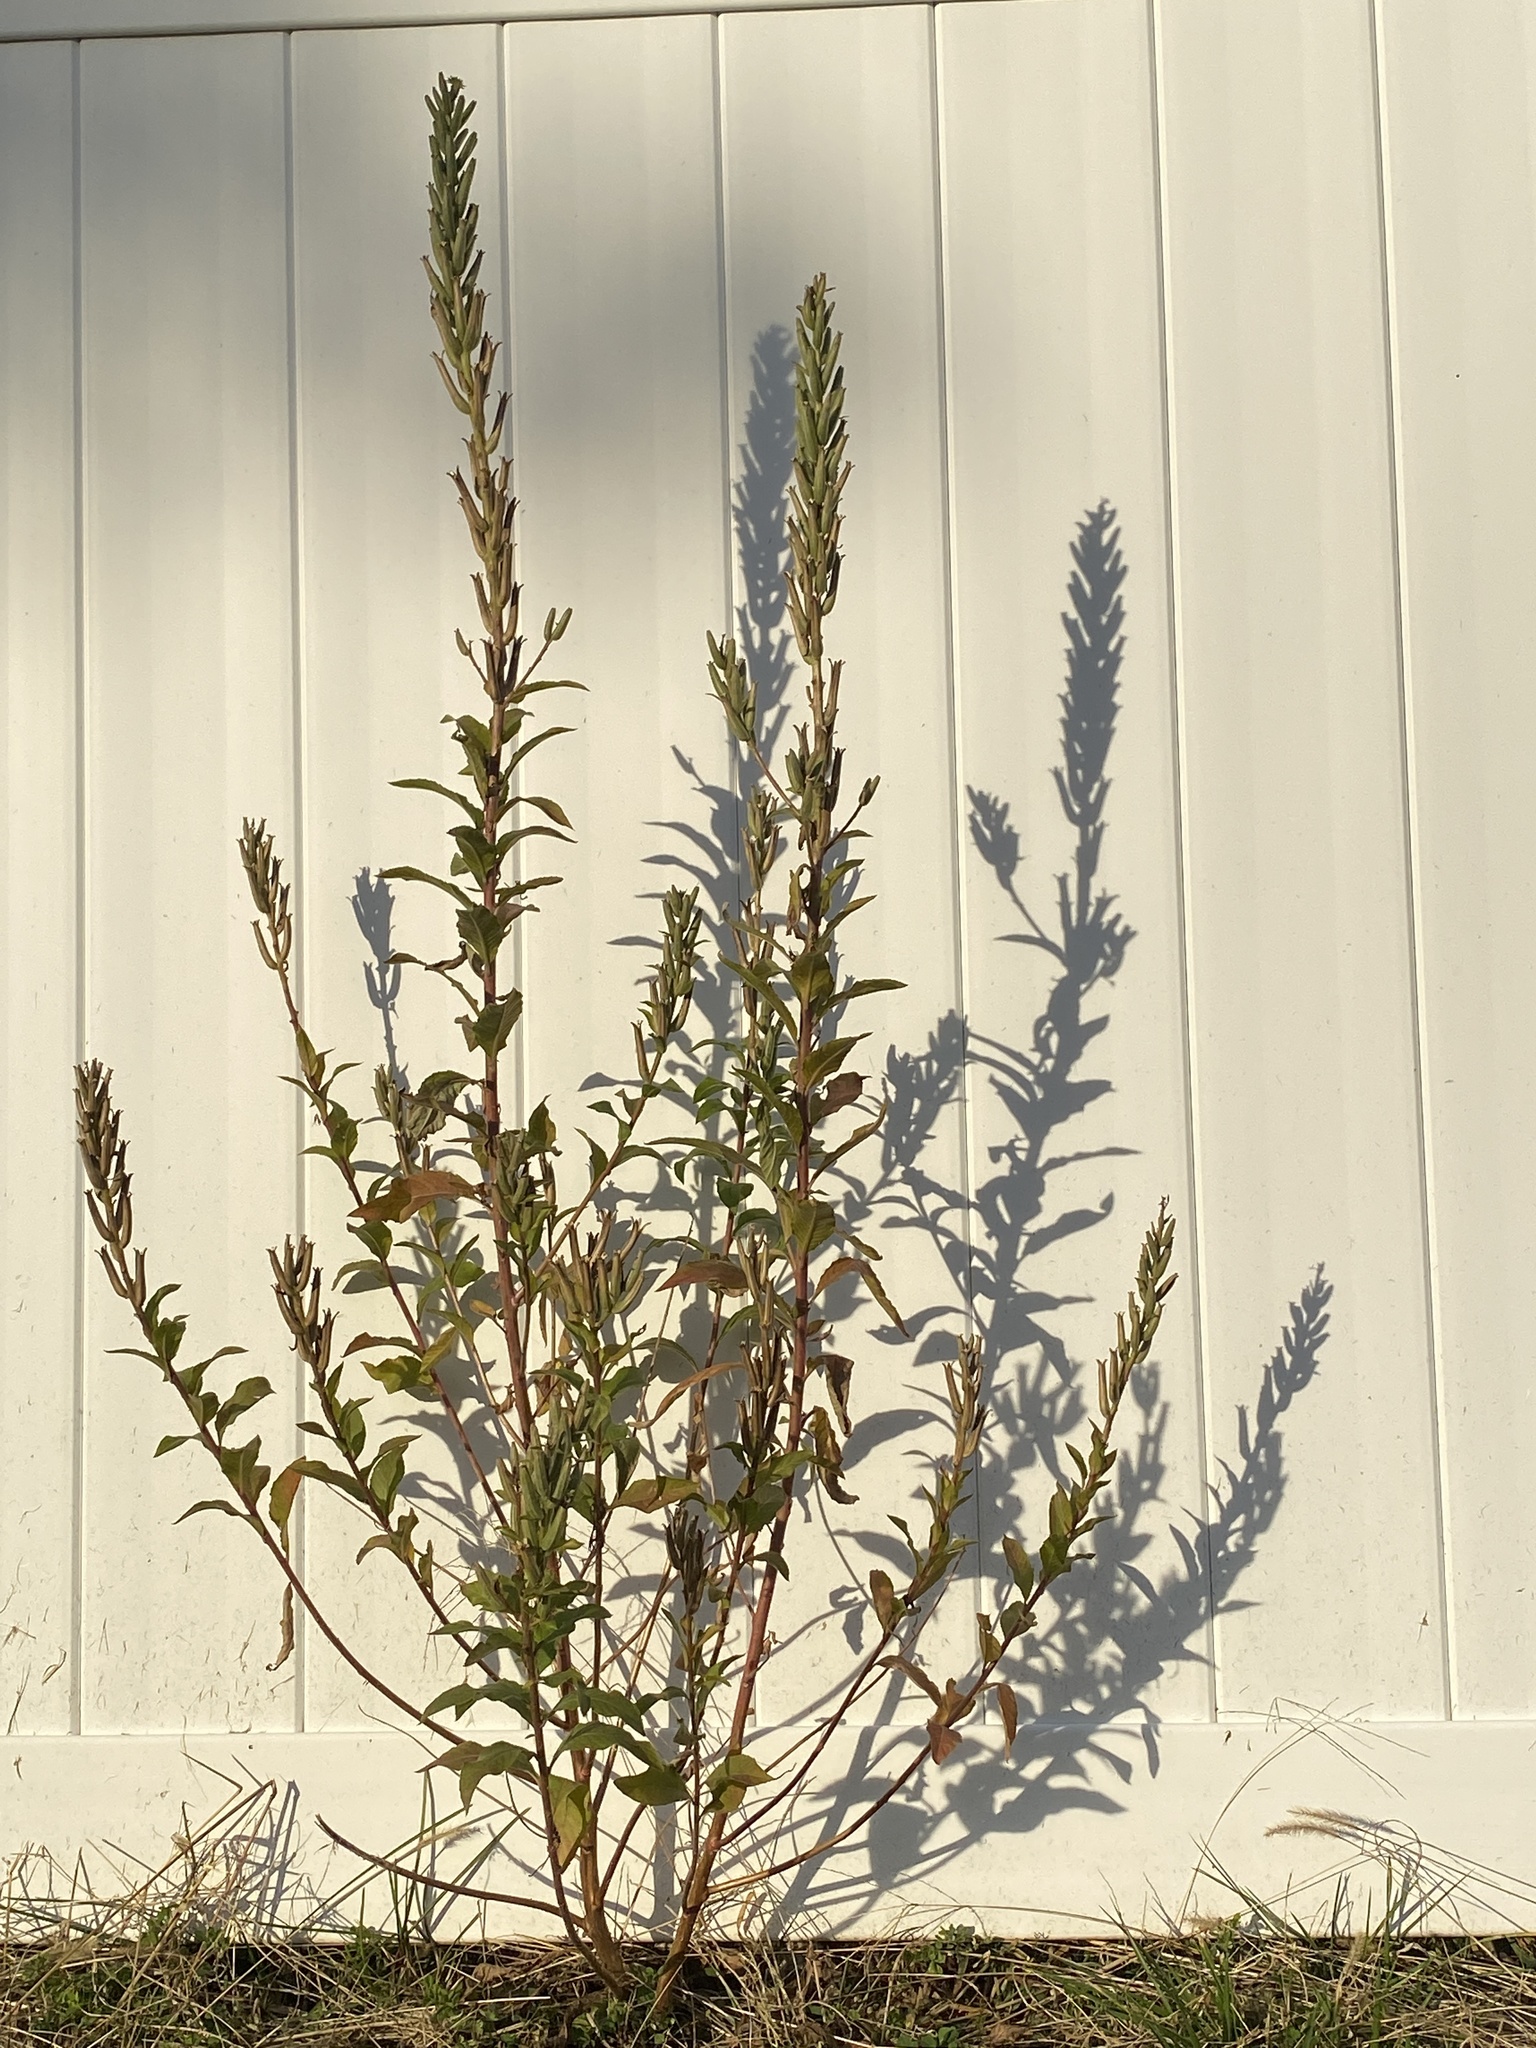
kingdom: Plantae
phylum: Tracheophyta
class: Magnoliopsida
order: Myrtales
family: Onagraceae
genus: Oenothera
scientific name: Oenothera biennis
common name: Common evening-primrose
